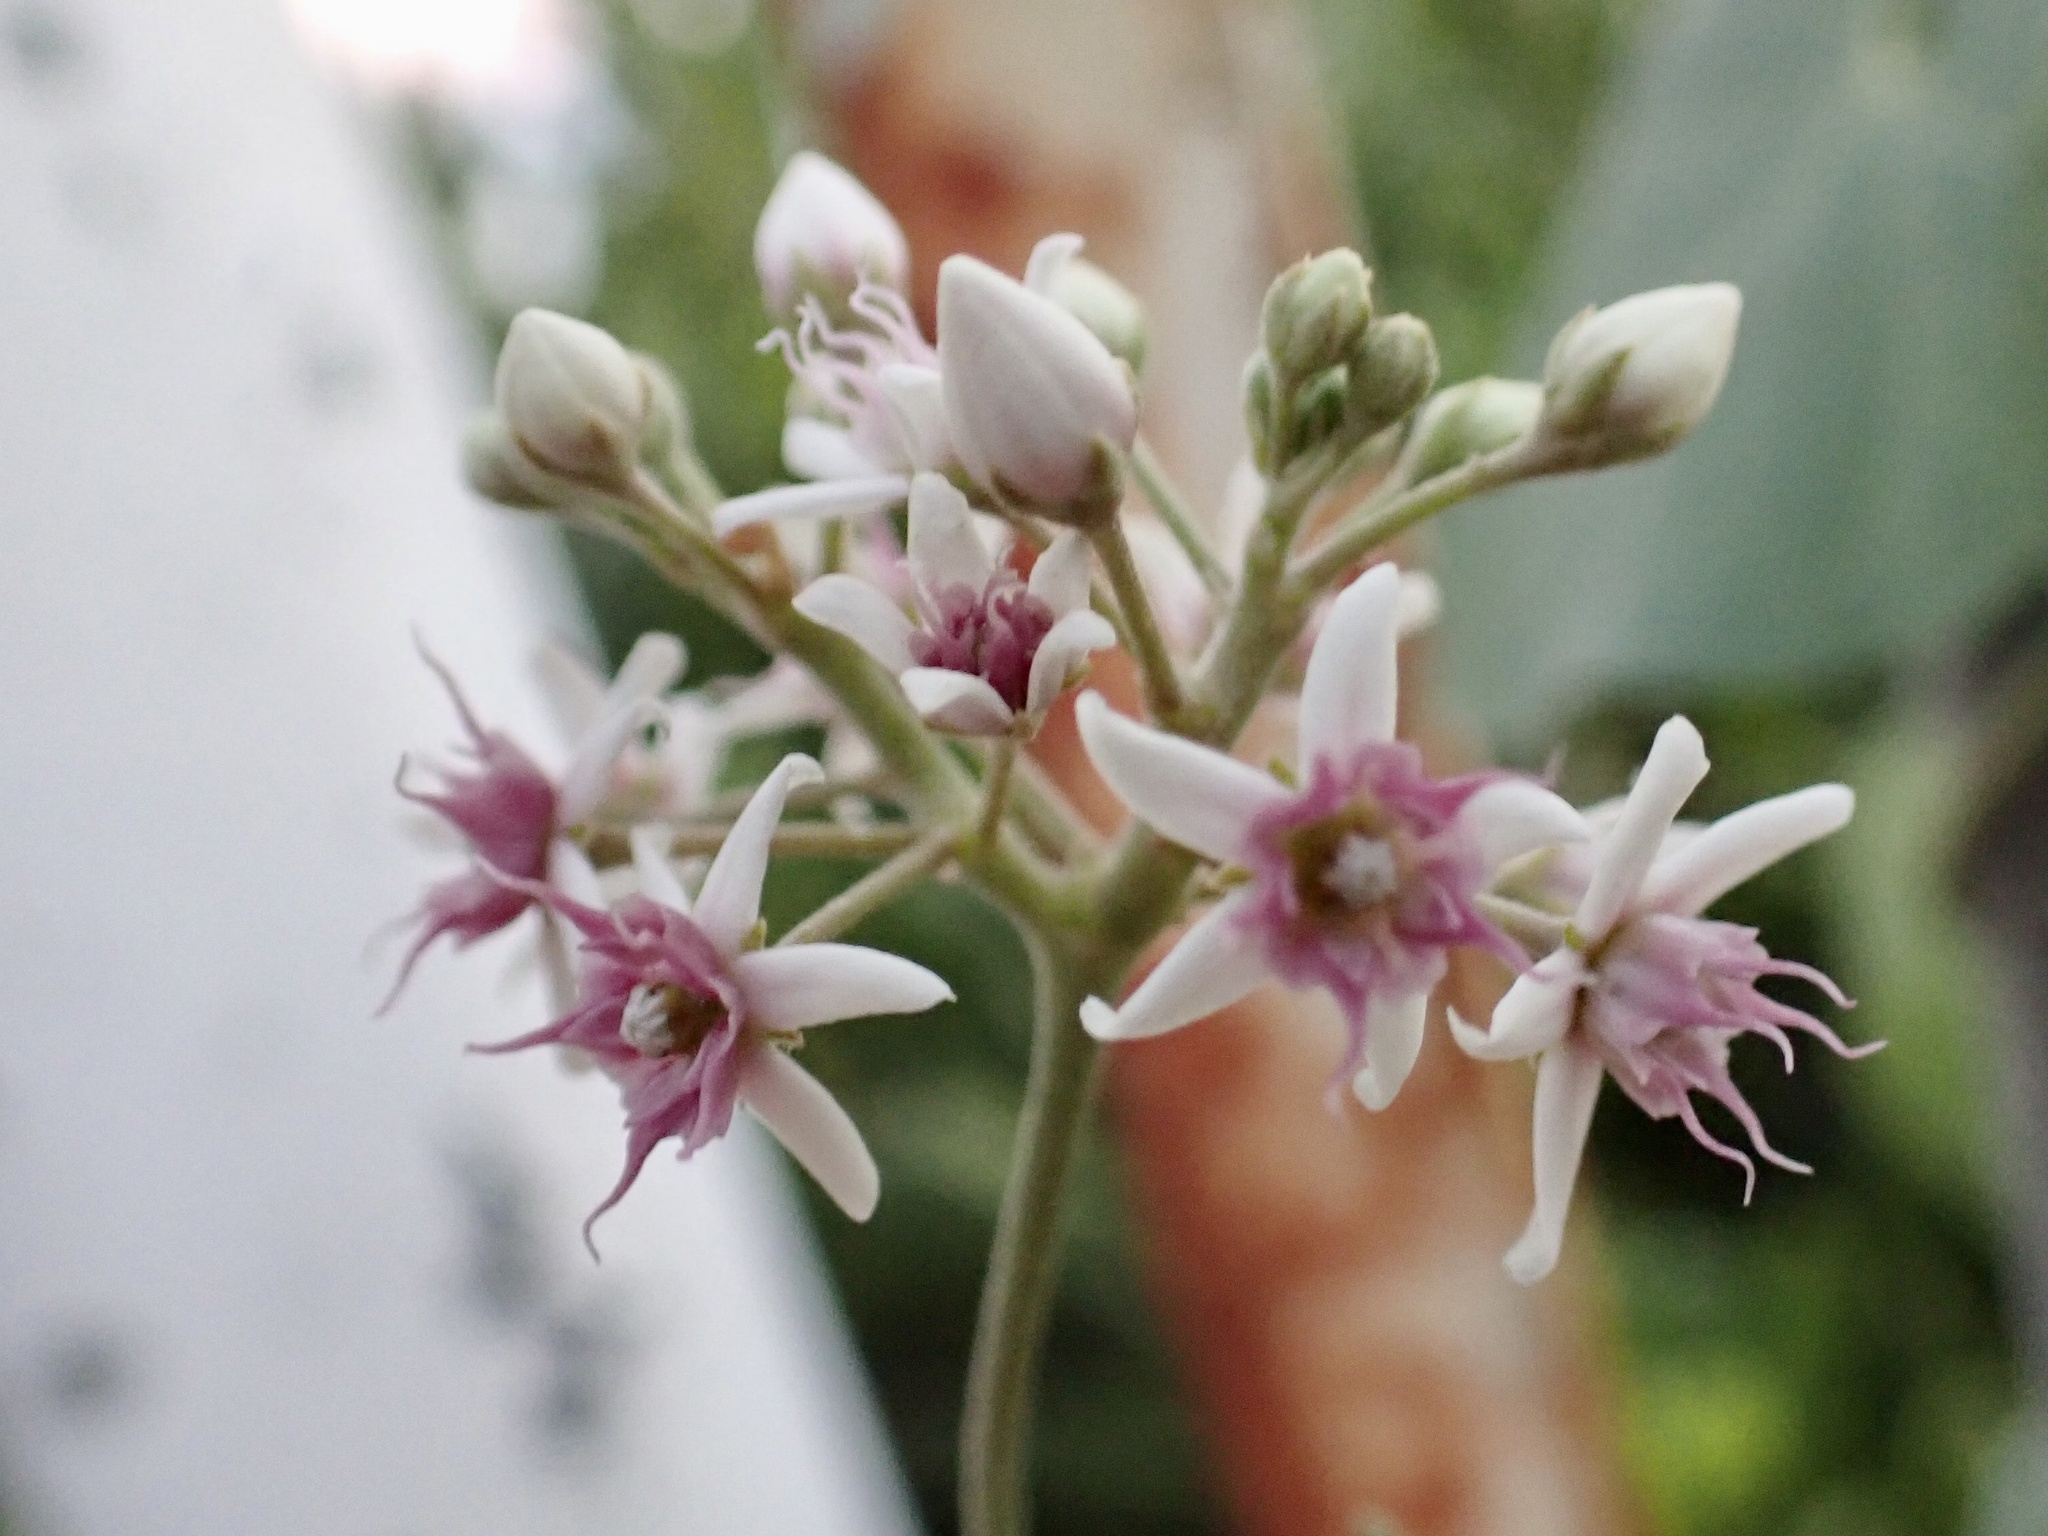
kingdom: Plantae
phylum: Tracheophyta
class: Magnoliopsida
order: Gentianales
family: Apocynaceae
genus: Cynanchum
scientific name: Cynanchum acutum
